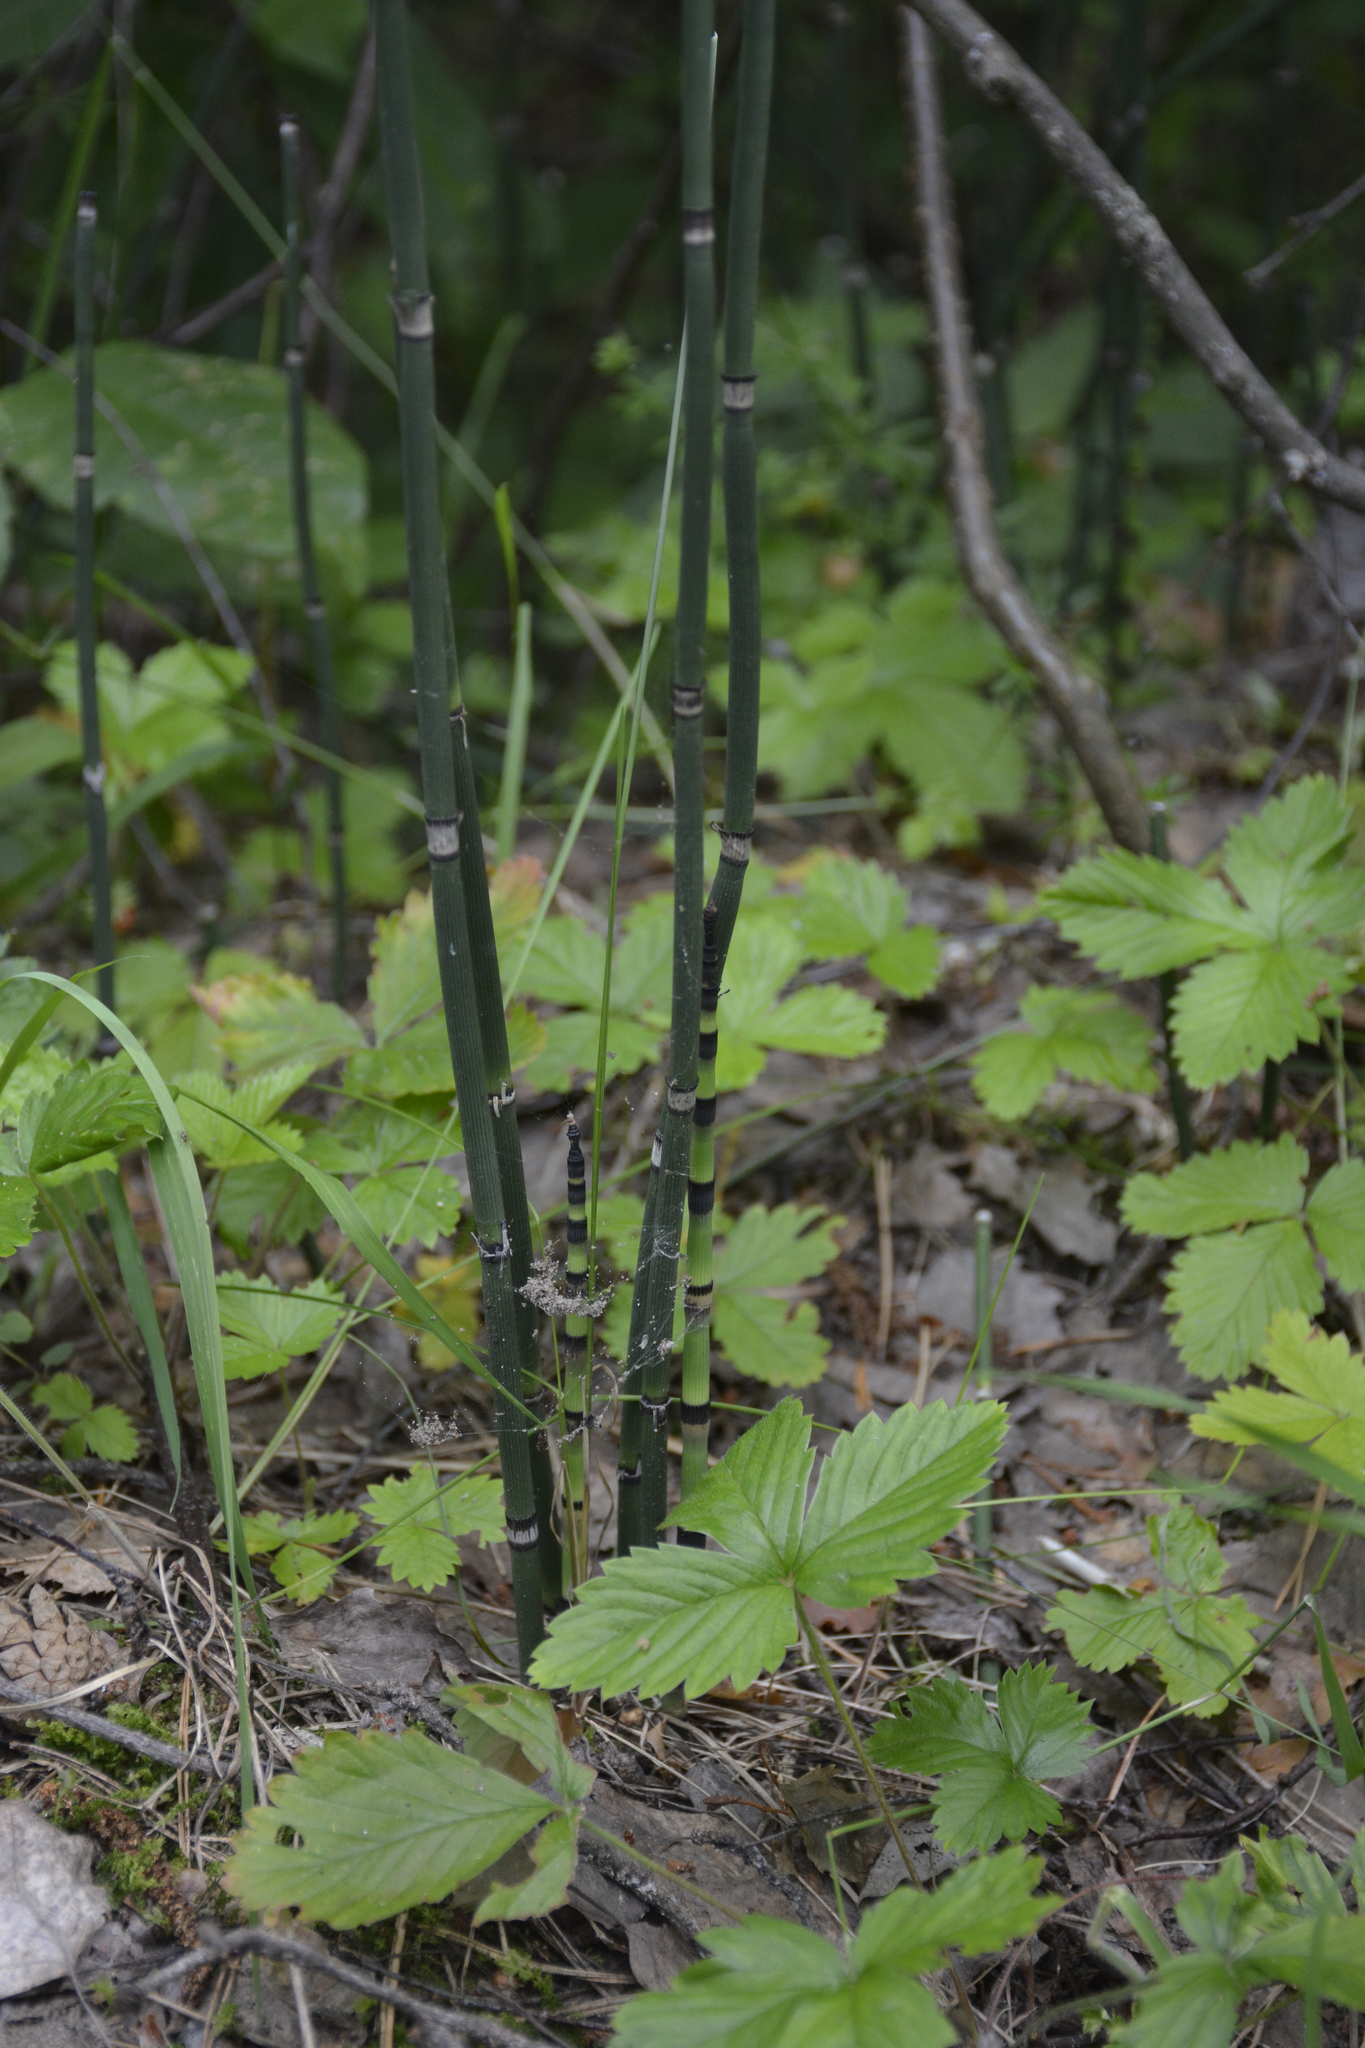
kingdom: Plantae
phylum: Tracheophyta
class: Polypodiopsida
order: Equisetales
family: Equisetaceae
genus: Equisetum
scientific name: Equisetum hyemale
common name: Rough horsetail
